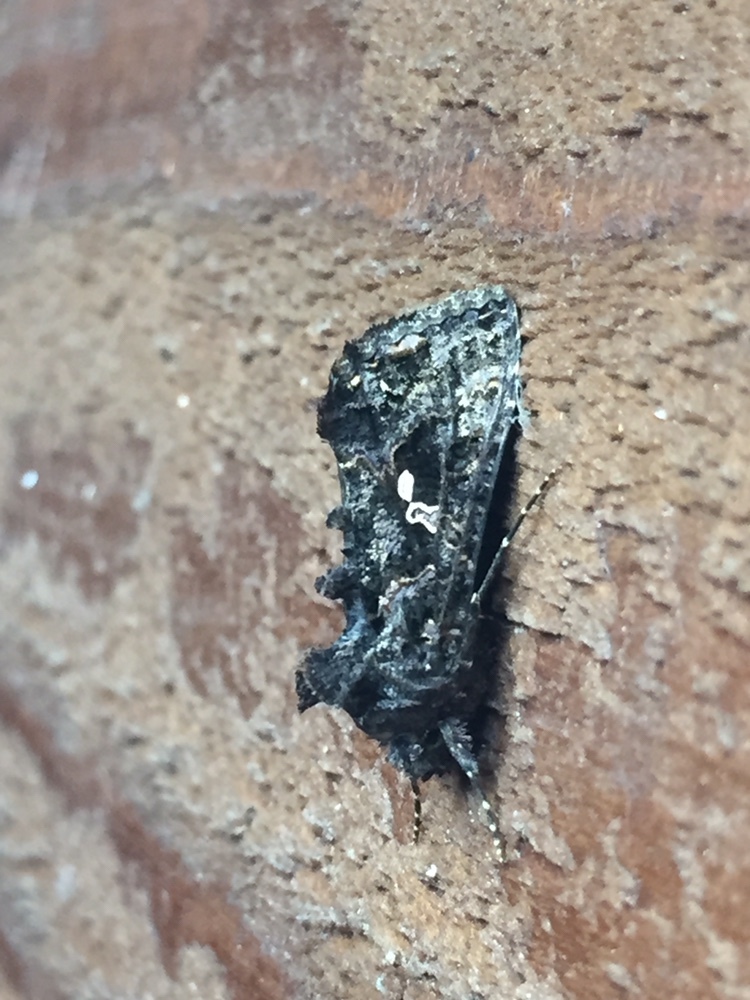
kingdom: Animalia
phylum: Arthropoda
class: Insecta
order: Lepidoptera
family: Noctuidae
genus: Ctenoplusia
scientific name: Ctenoplusia limbirena
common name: Scar bank gem
